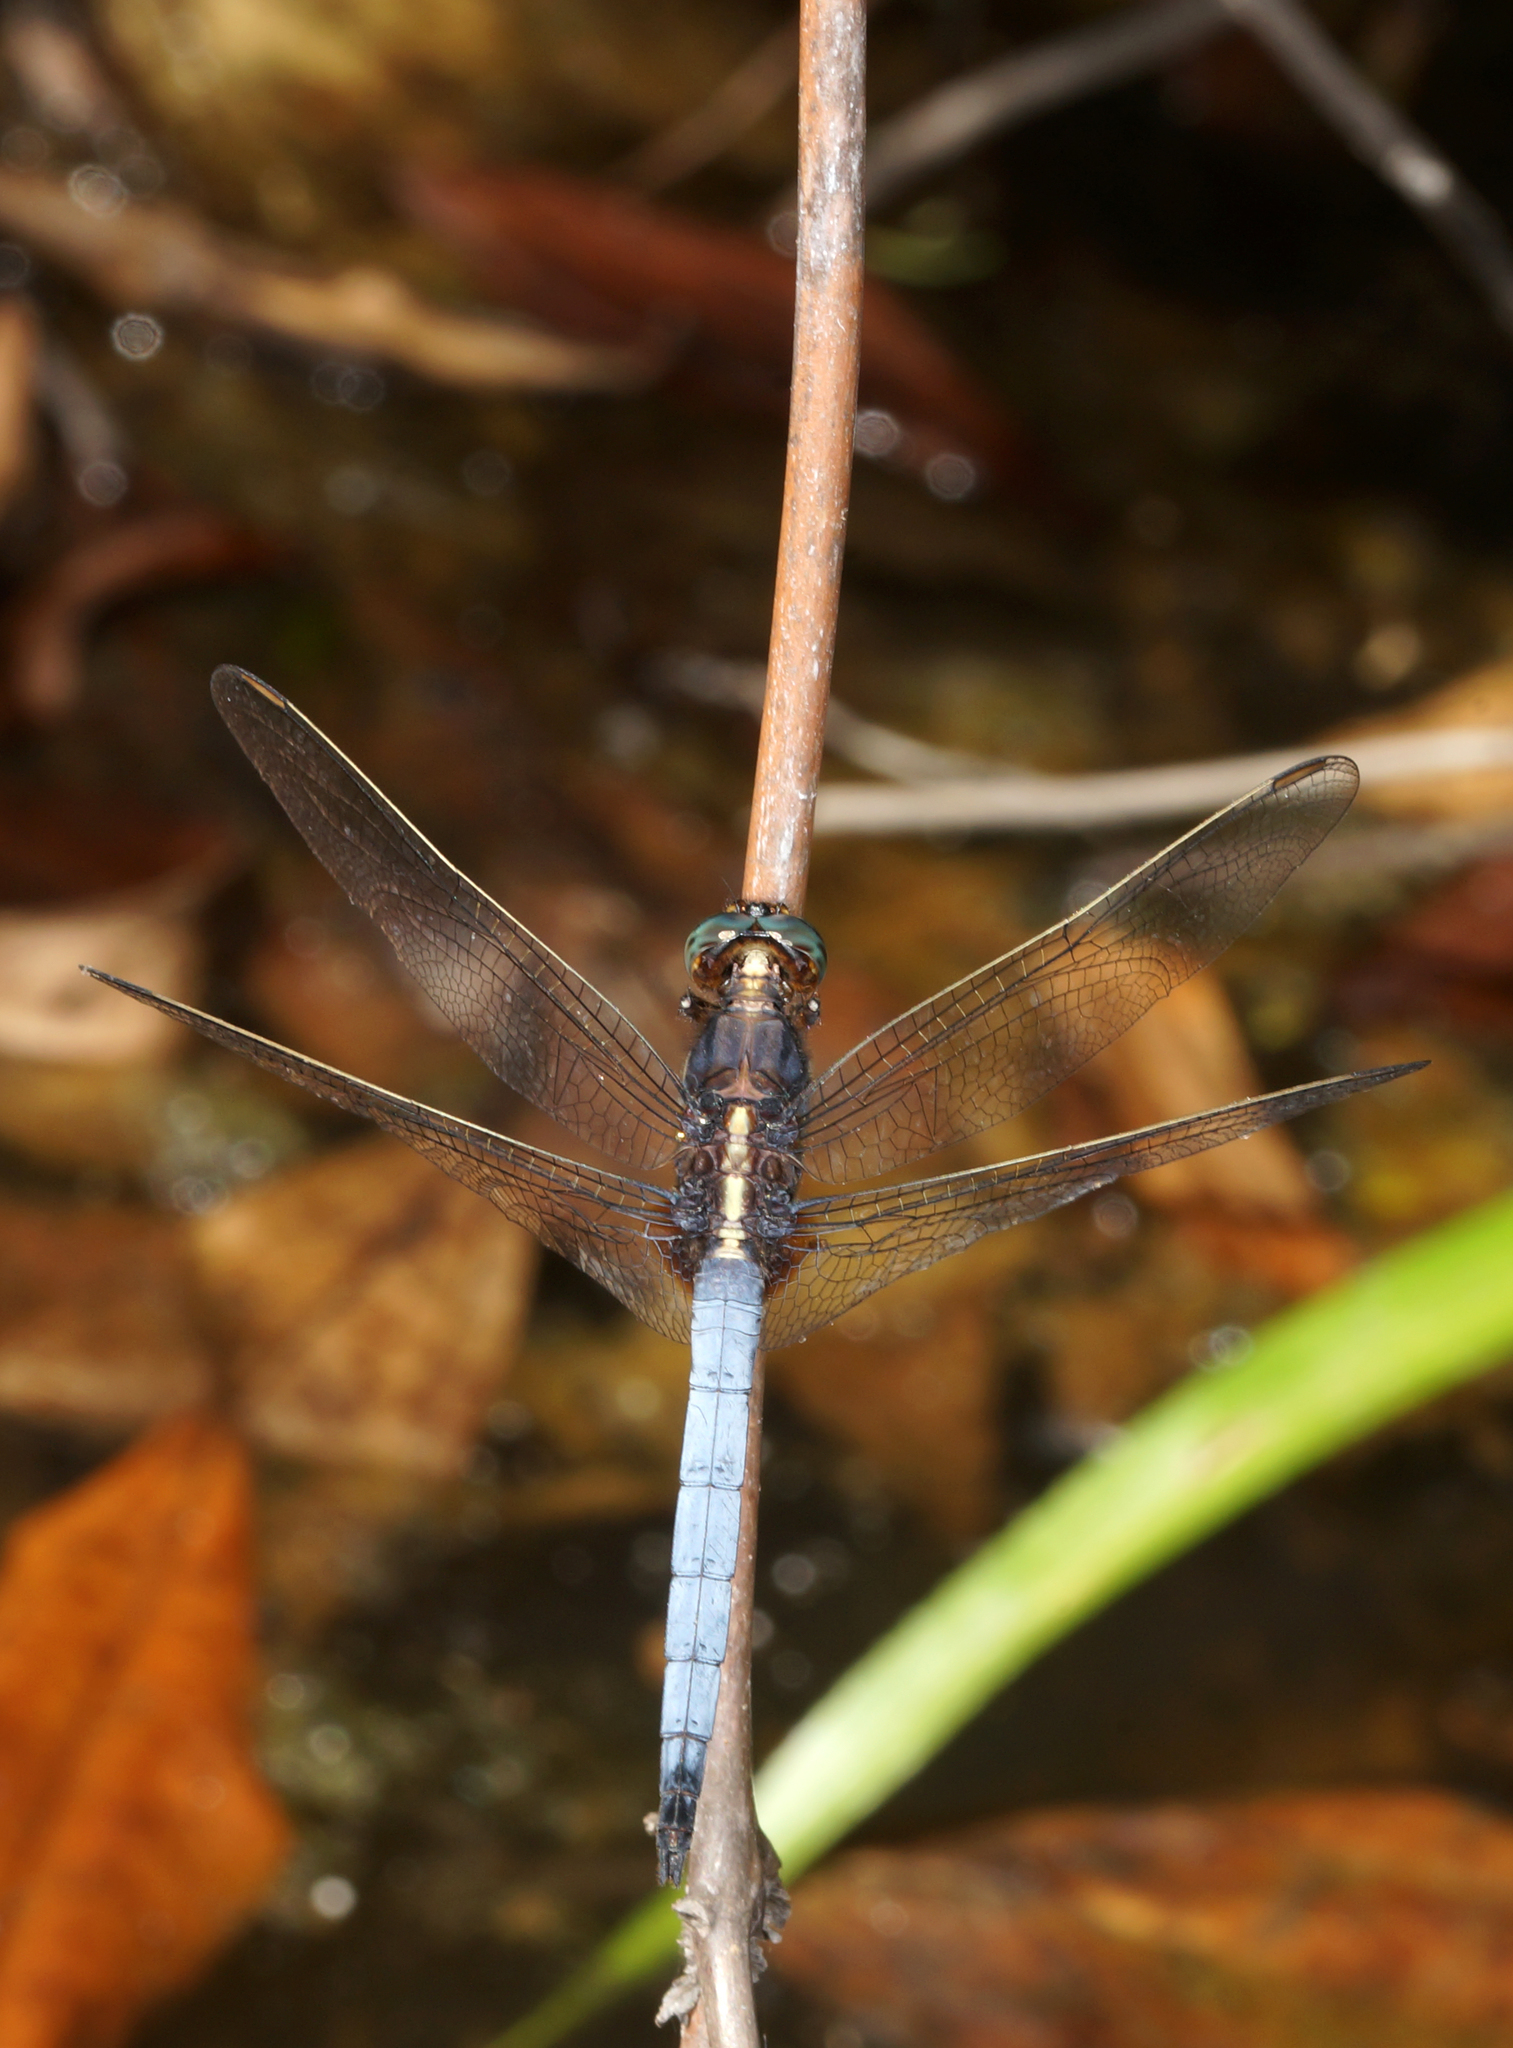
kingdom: Animalia
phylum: Arthropoda
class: Insecta
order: Odonata
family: Libellulidae
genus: Orthetrum
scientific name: Orthetrum glaucum
